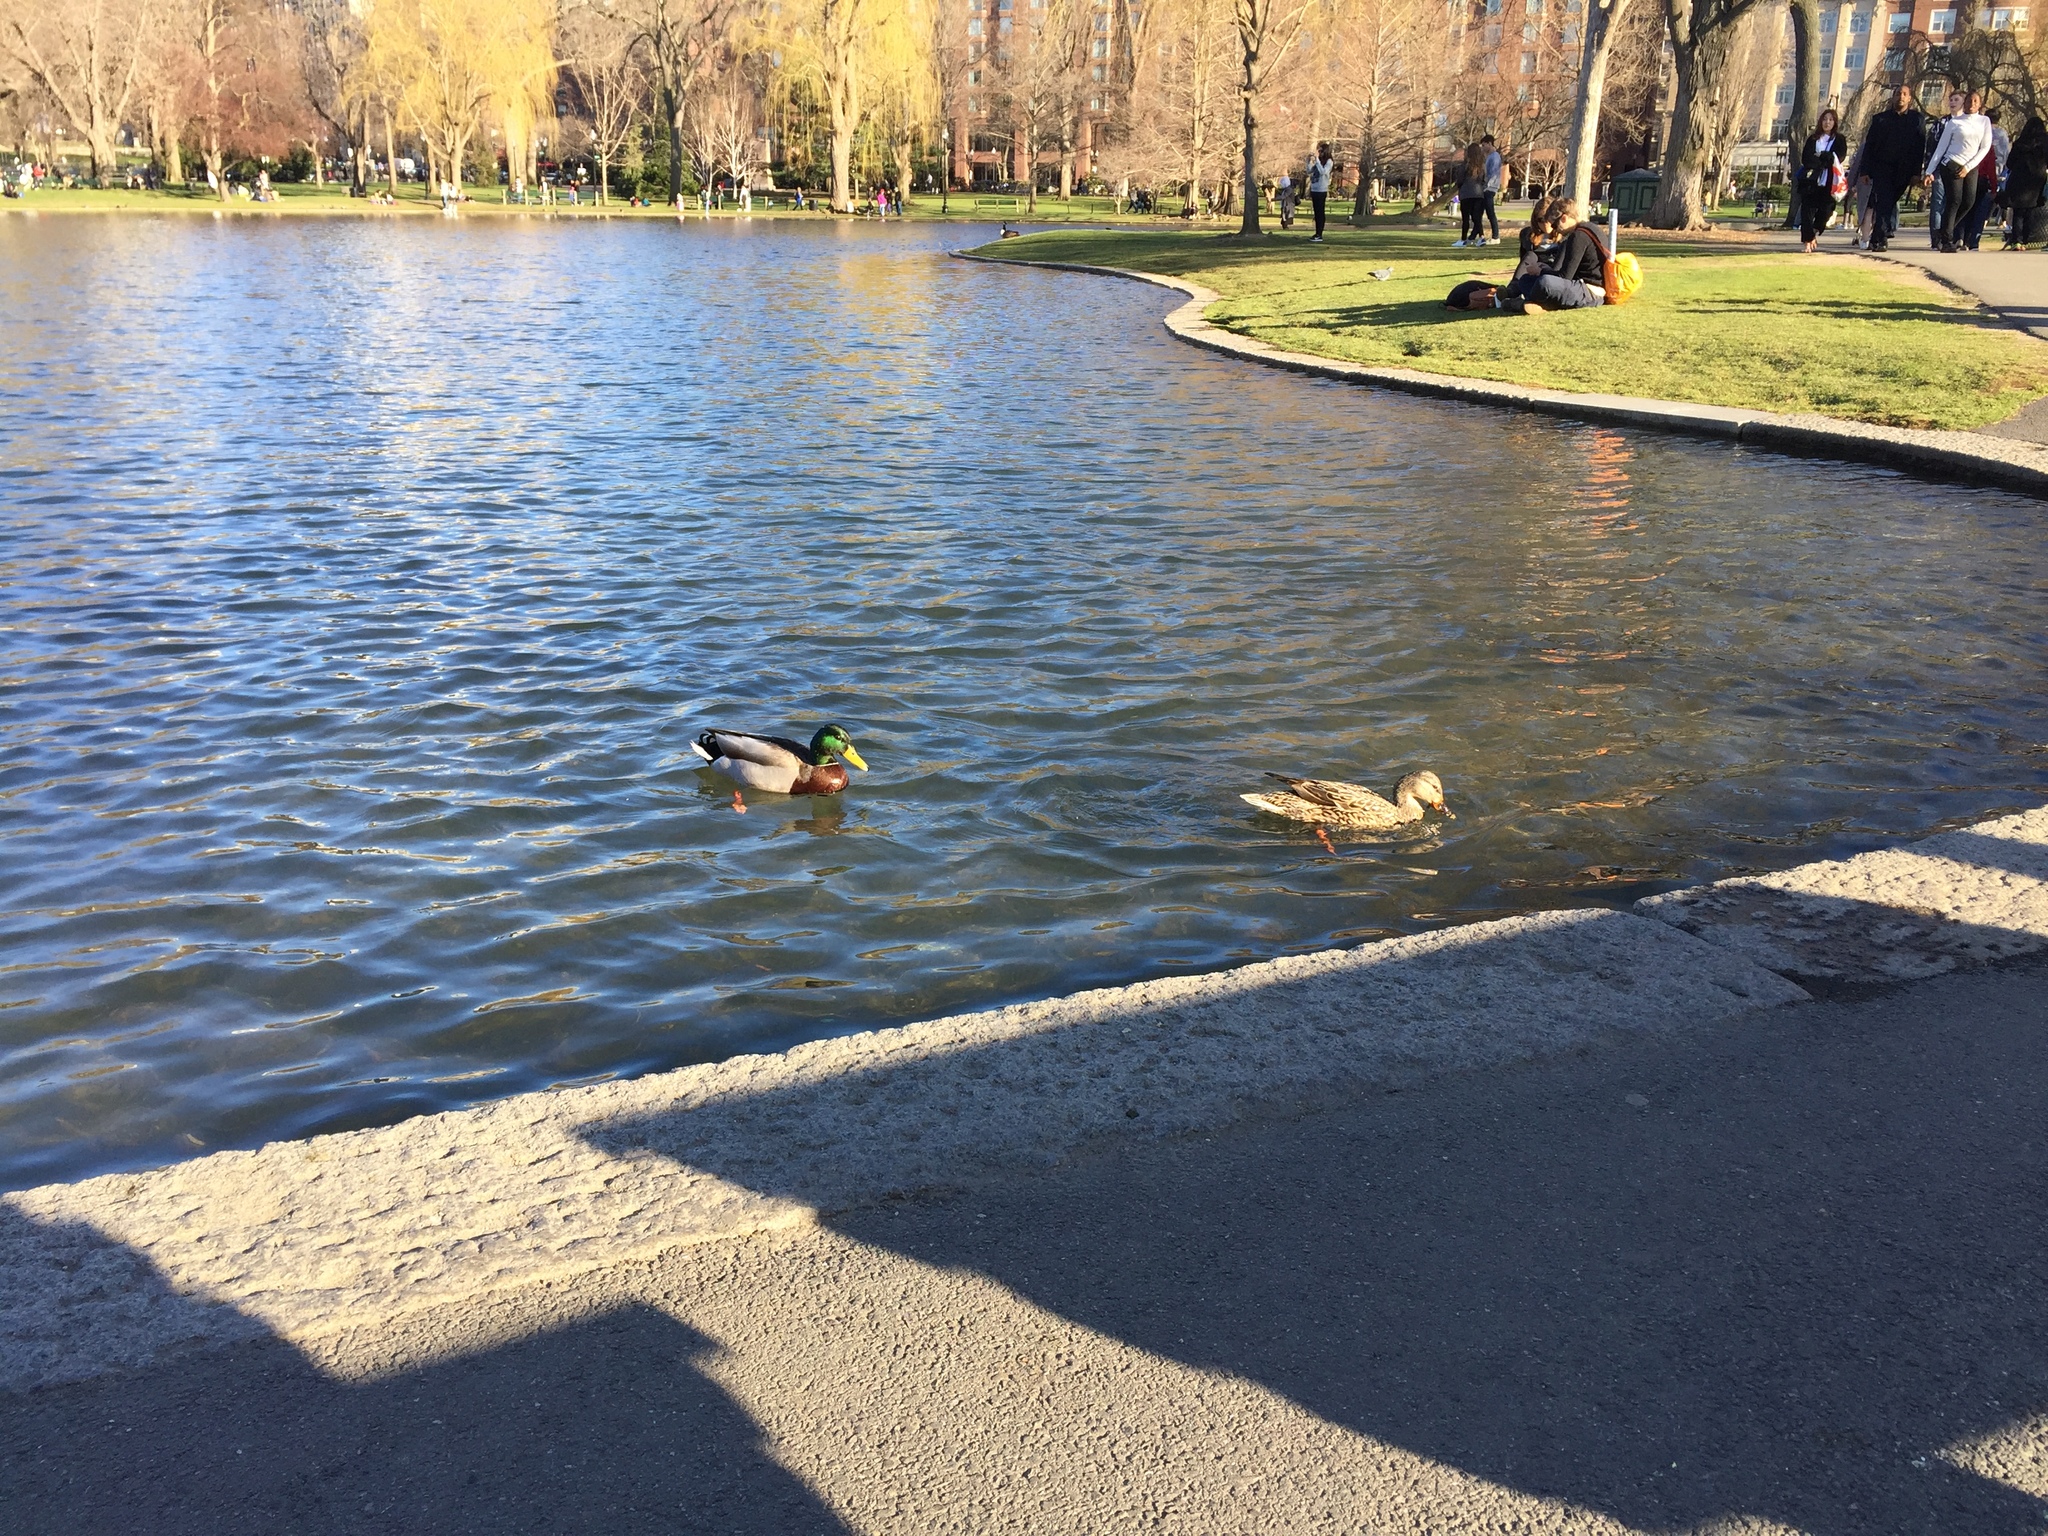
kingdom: Animalia
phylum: Chordata
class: Aves
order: Anseriformes
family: Anatidae
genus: Anas
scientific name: Anas platyrhynchos
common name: Mallard
